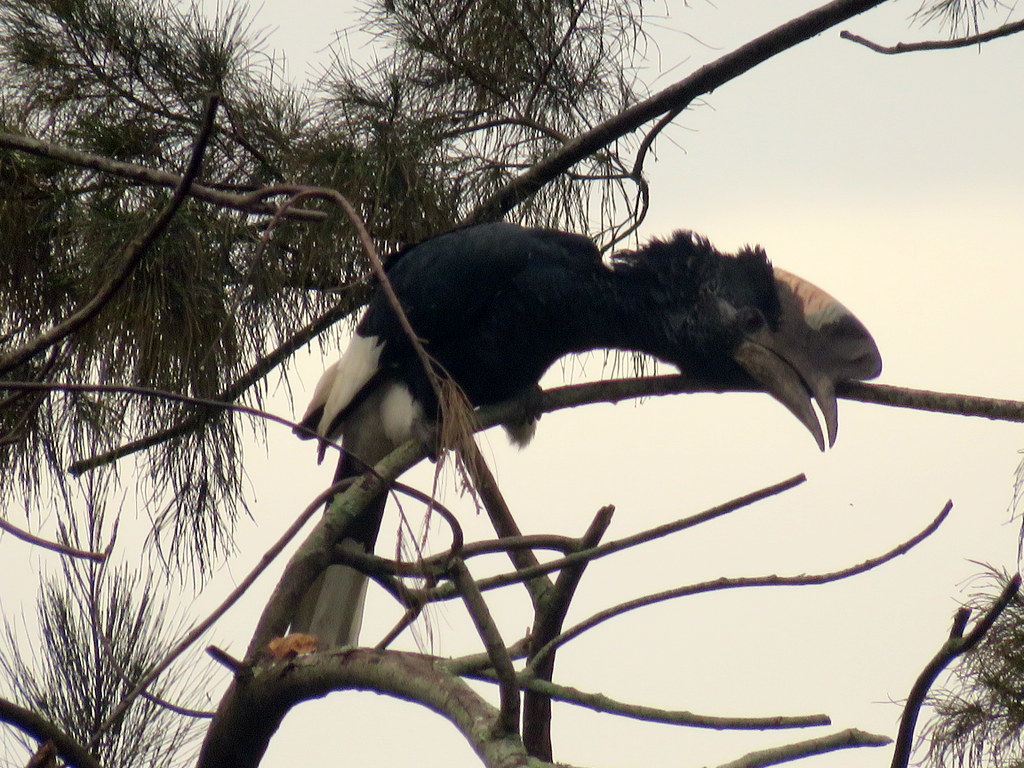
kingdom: Animalia
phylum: Chordata
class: Aves
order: Bucerotiformes
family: Bucerotidae
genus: Bycanistes
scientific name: Bycanistes subcylindricus
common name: Black-and-white-casqued hornbill
